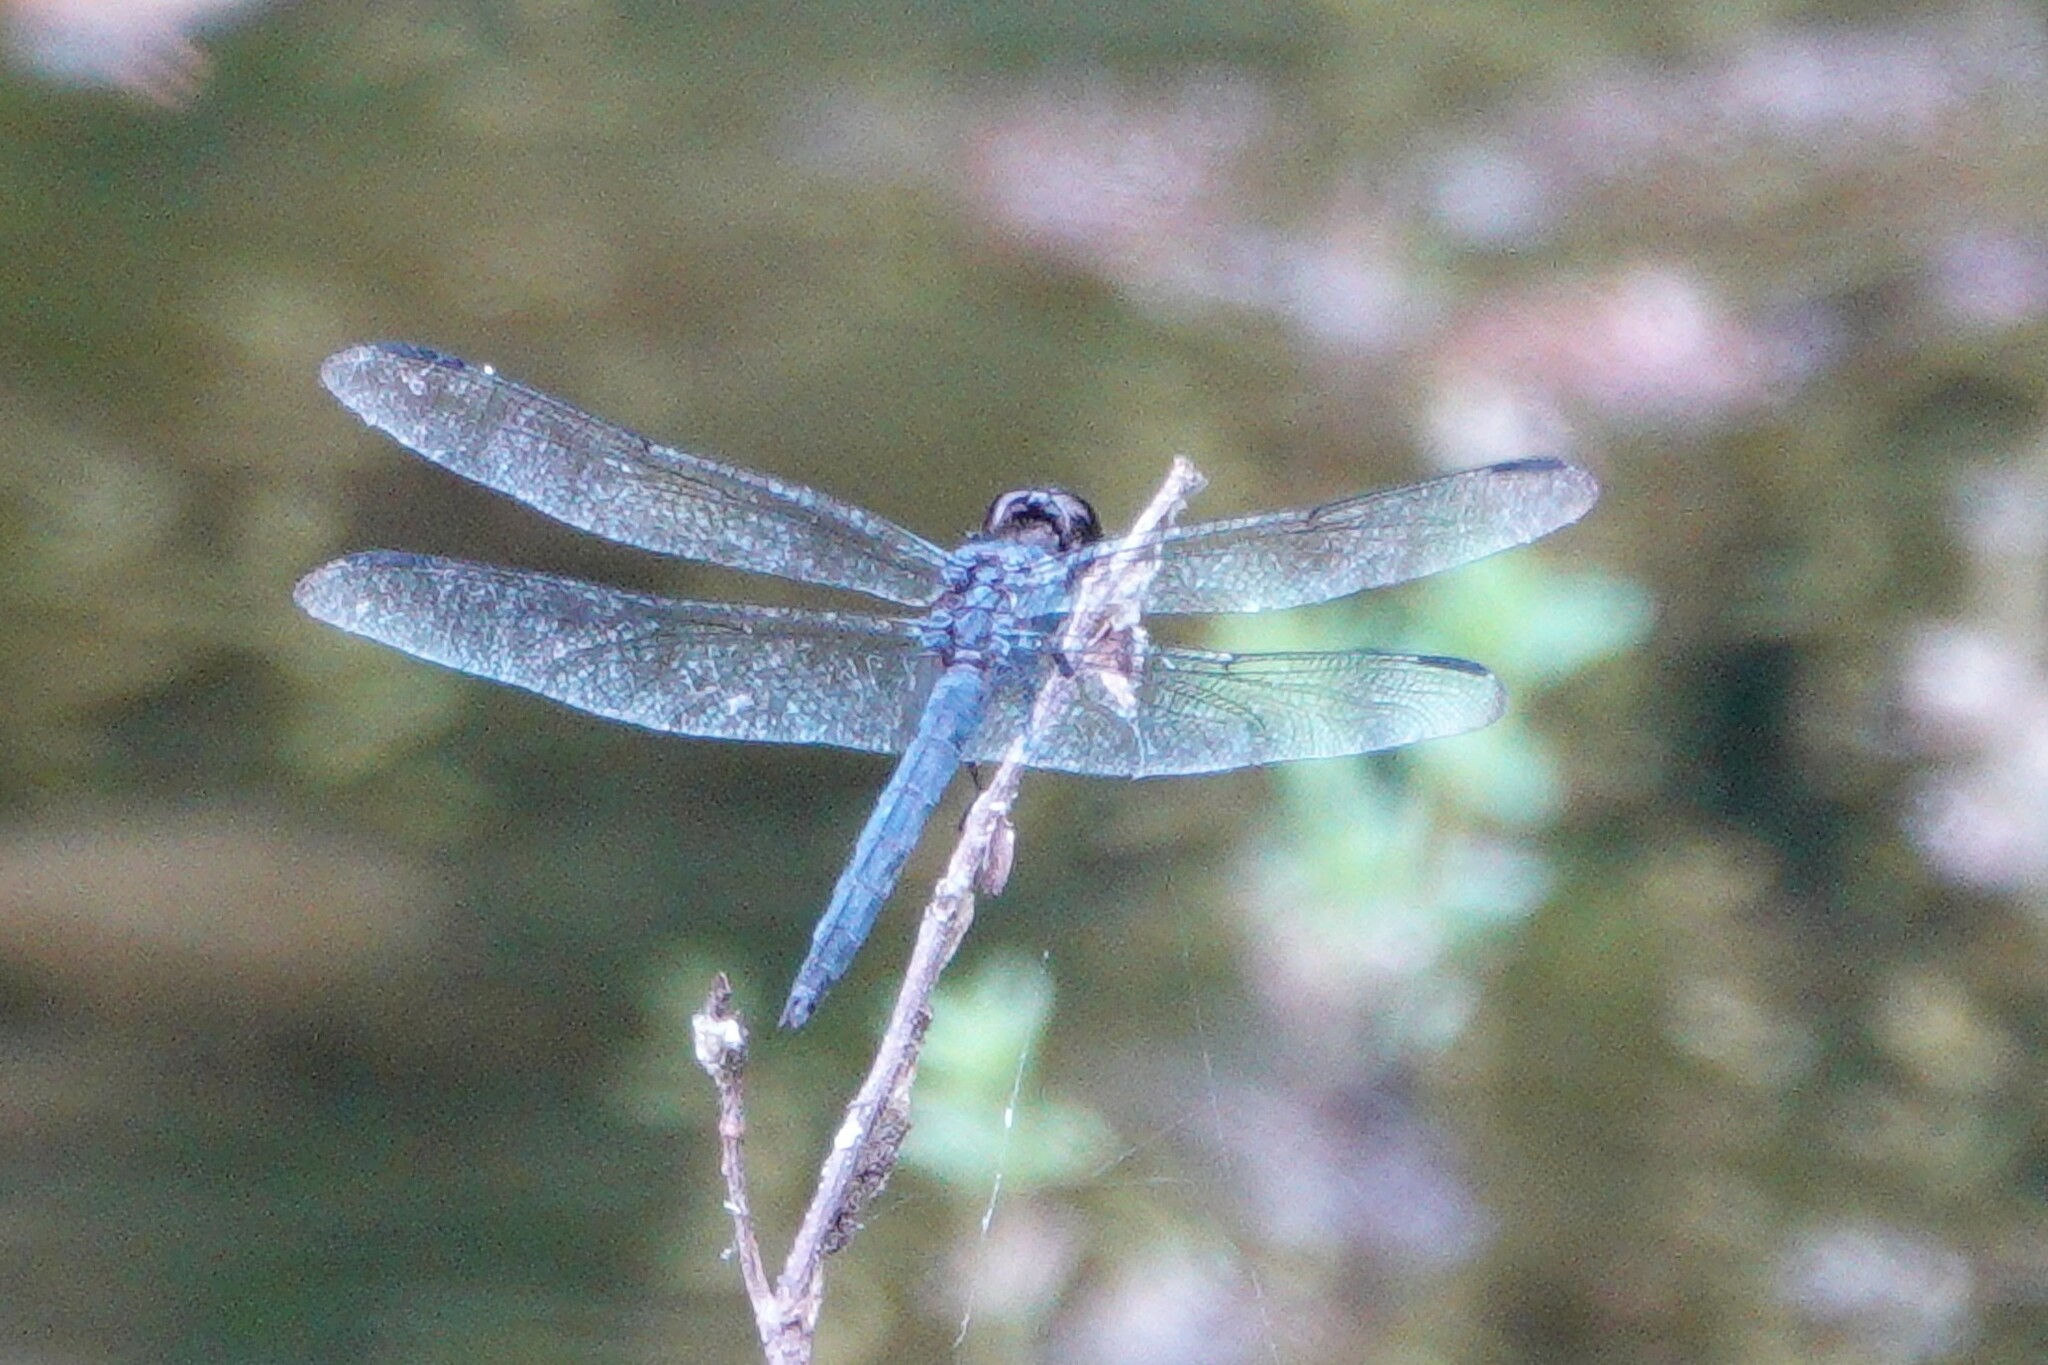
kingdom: Animalia
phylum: Arthropoda
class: Insecta
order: Odonata
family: Libellulidae
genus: Libellula
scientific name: Libellula incesta
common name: Slaty skimmer
